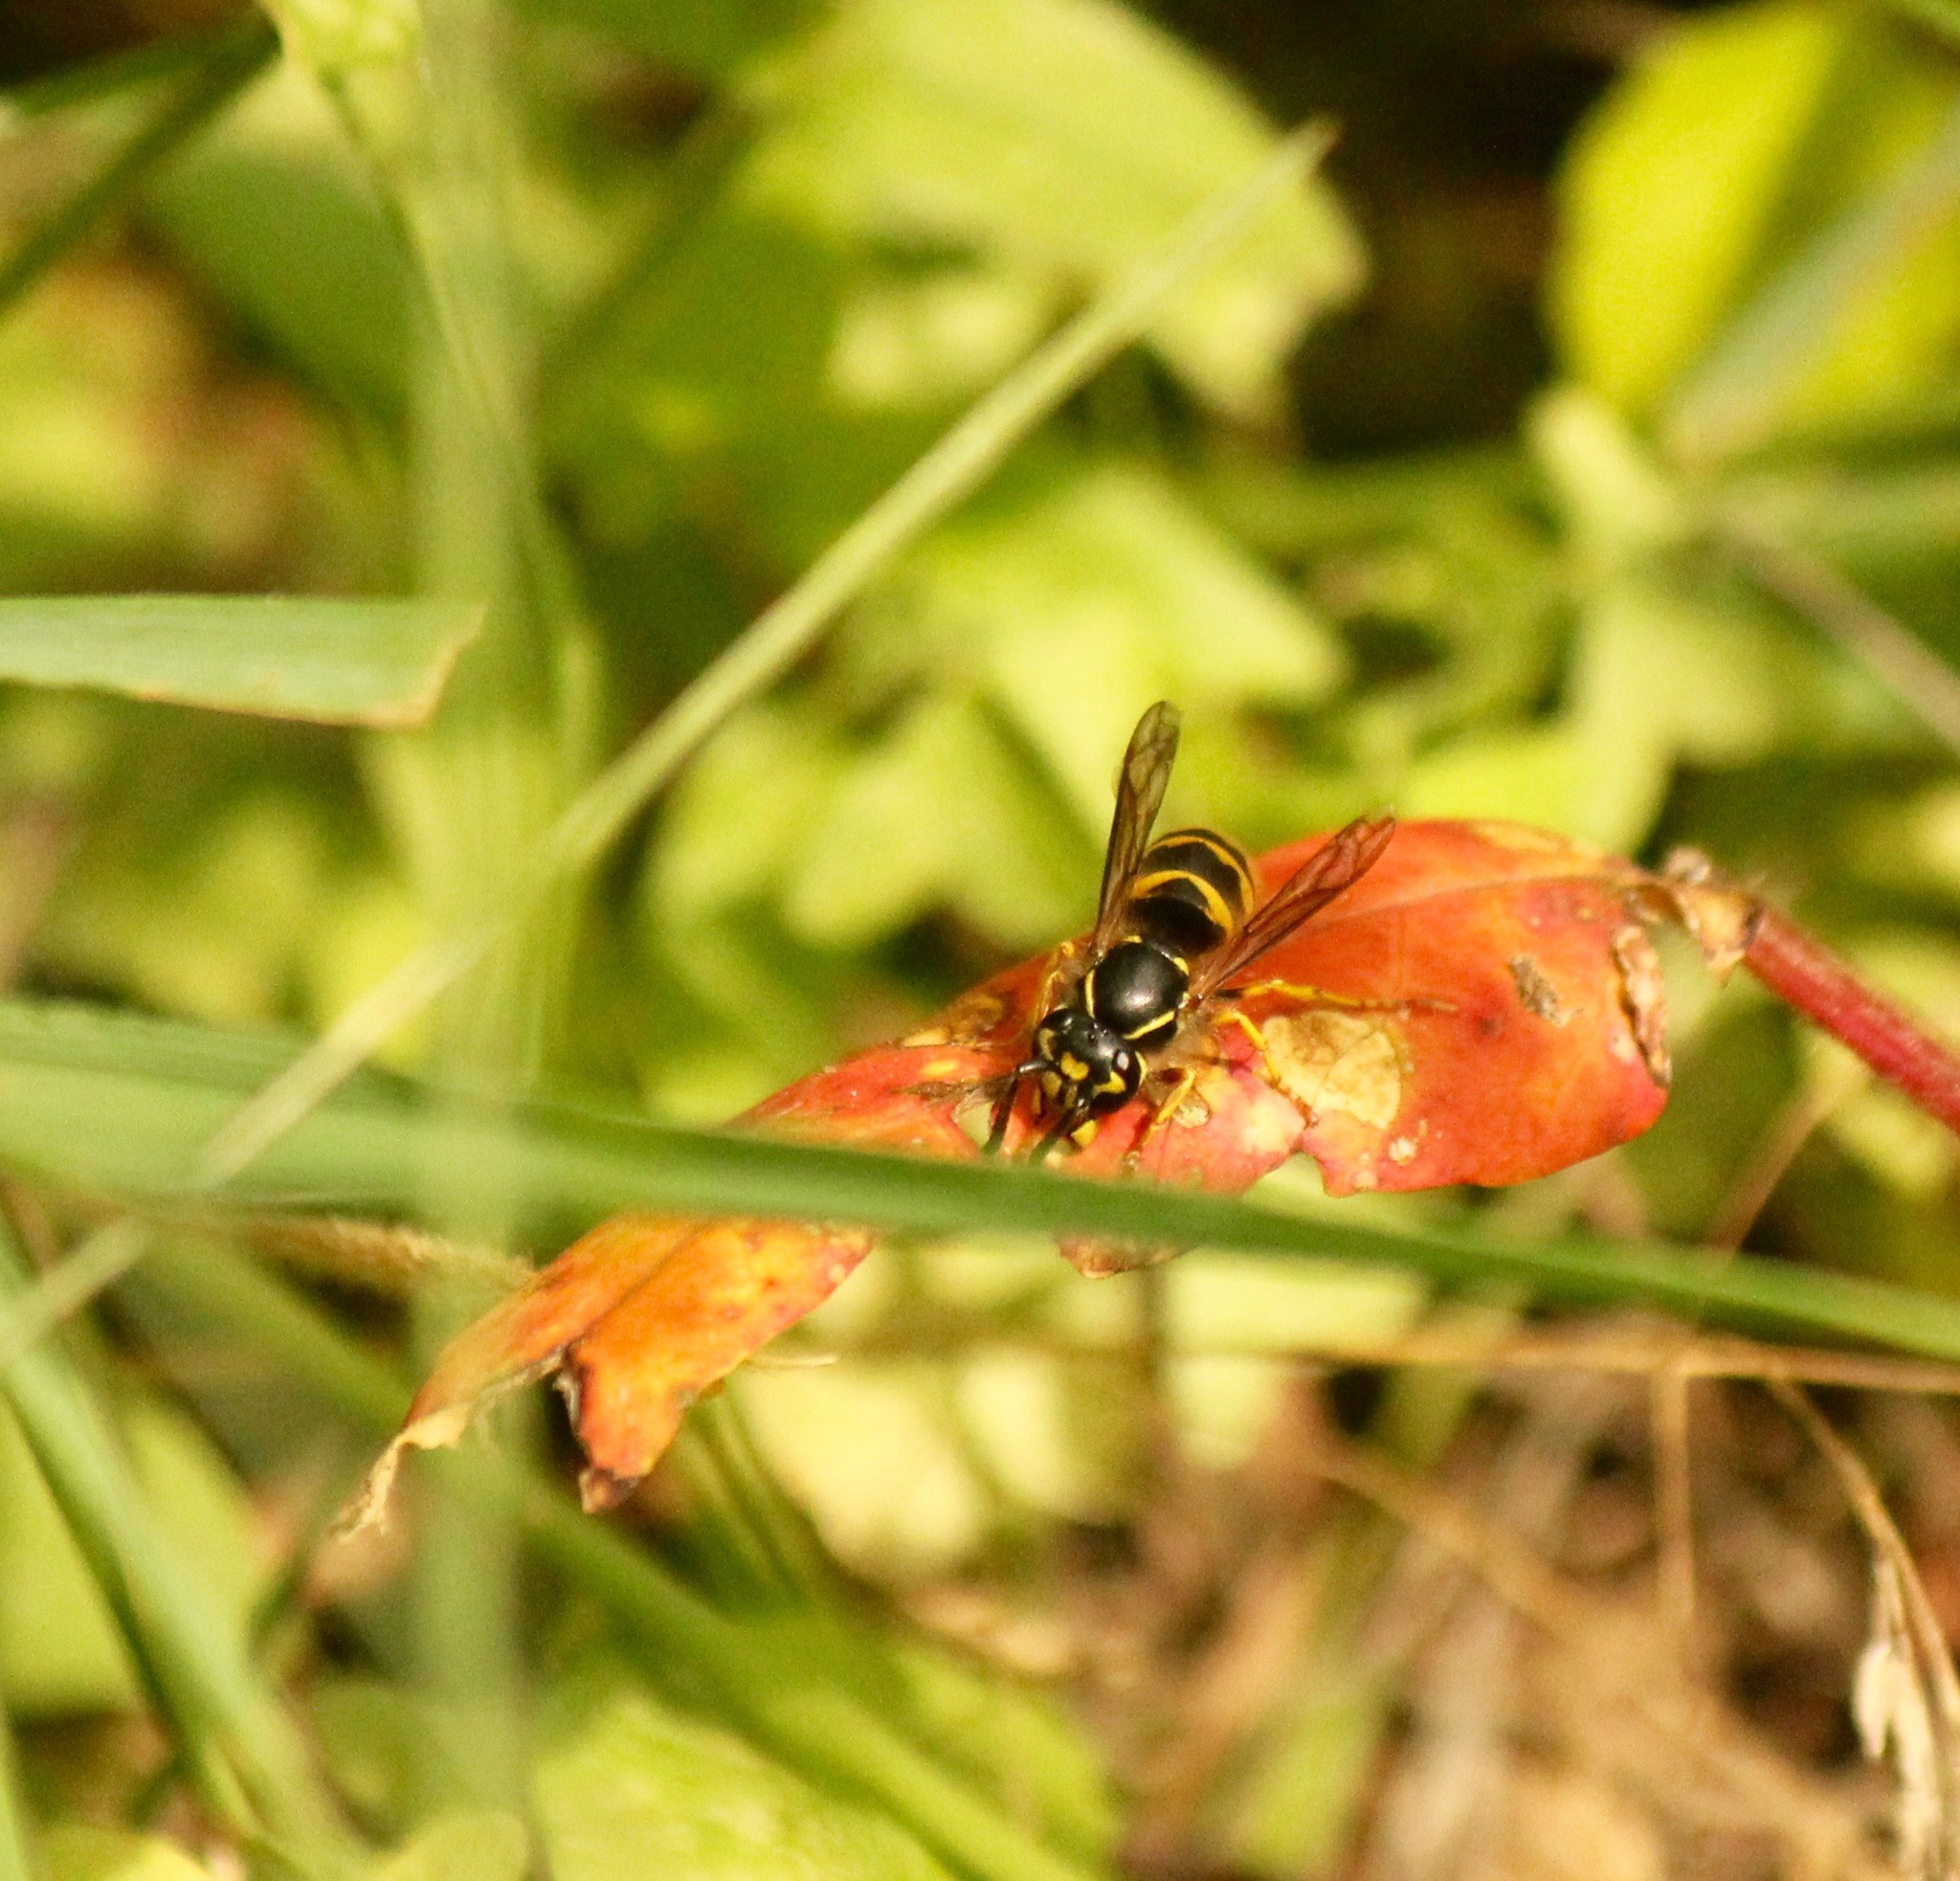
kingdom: Animalia
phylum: Arthropoda
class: Insecta
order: Hymenoptera
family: Vespidae
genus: Vespula
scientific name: Vespula alascensis
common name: Alaska yellowjacket
